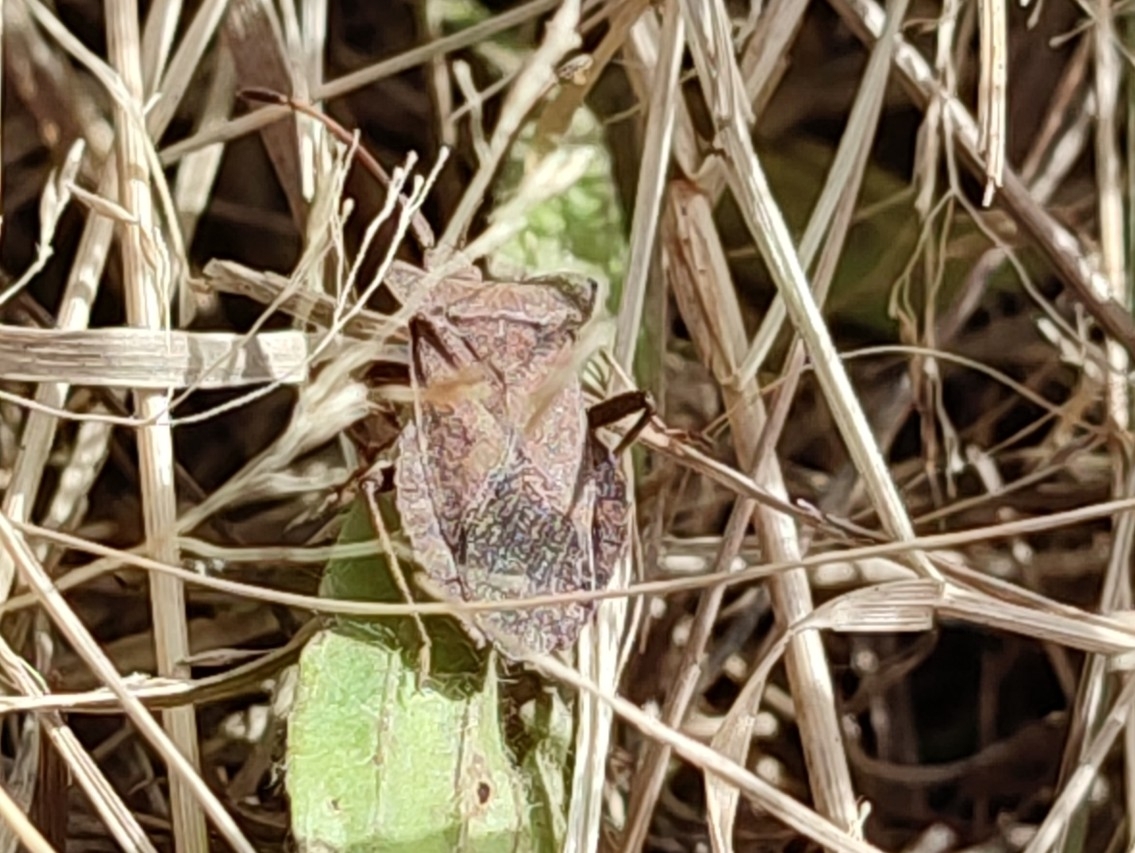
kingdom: Animalia
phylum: Arthropoda
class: Insecta
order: Hemiptera
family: Coreidae
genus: Coreus
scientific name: Coreus marginatus
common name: Dock bug
